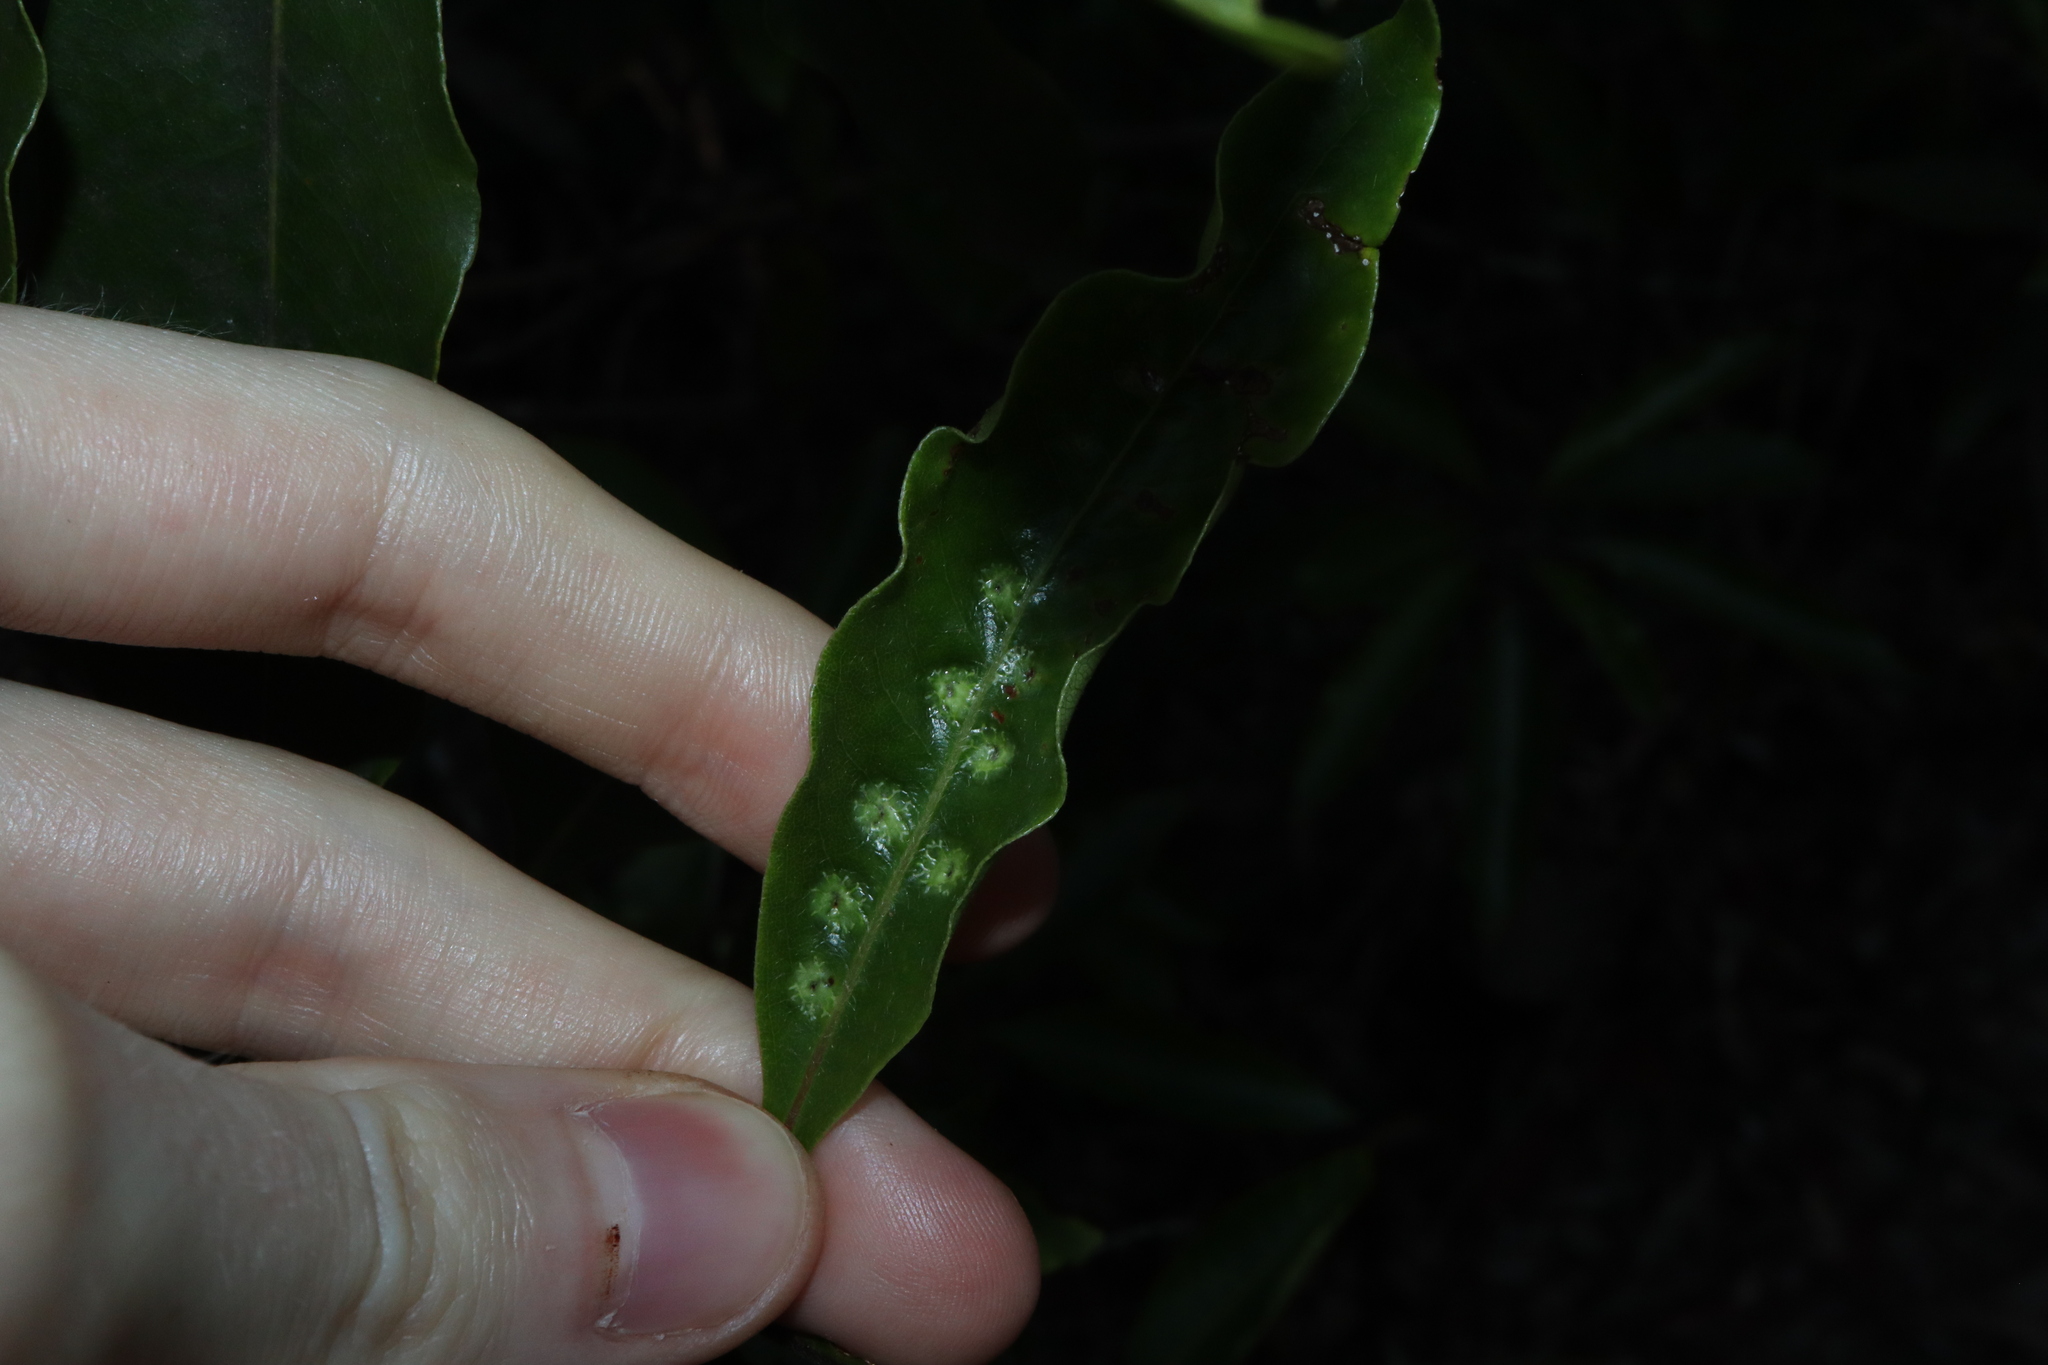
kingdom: Animalia
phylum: Arthropoda
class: Insecta
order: Diptera
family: Agromyzidae
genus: Phytoliriomyza
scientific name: Phytoliriomyza pittosporophylli
